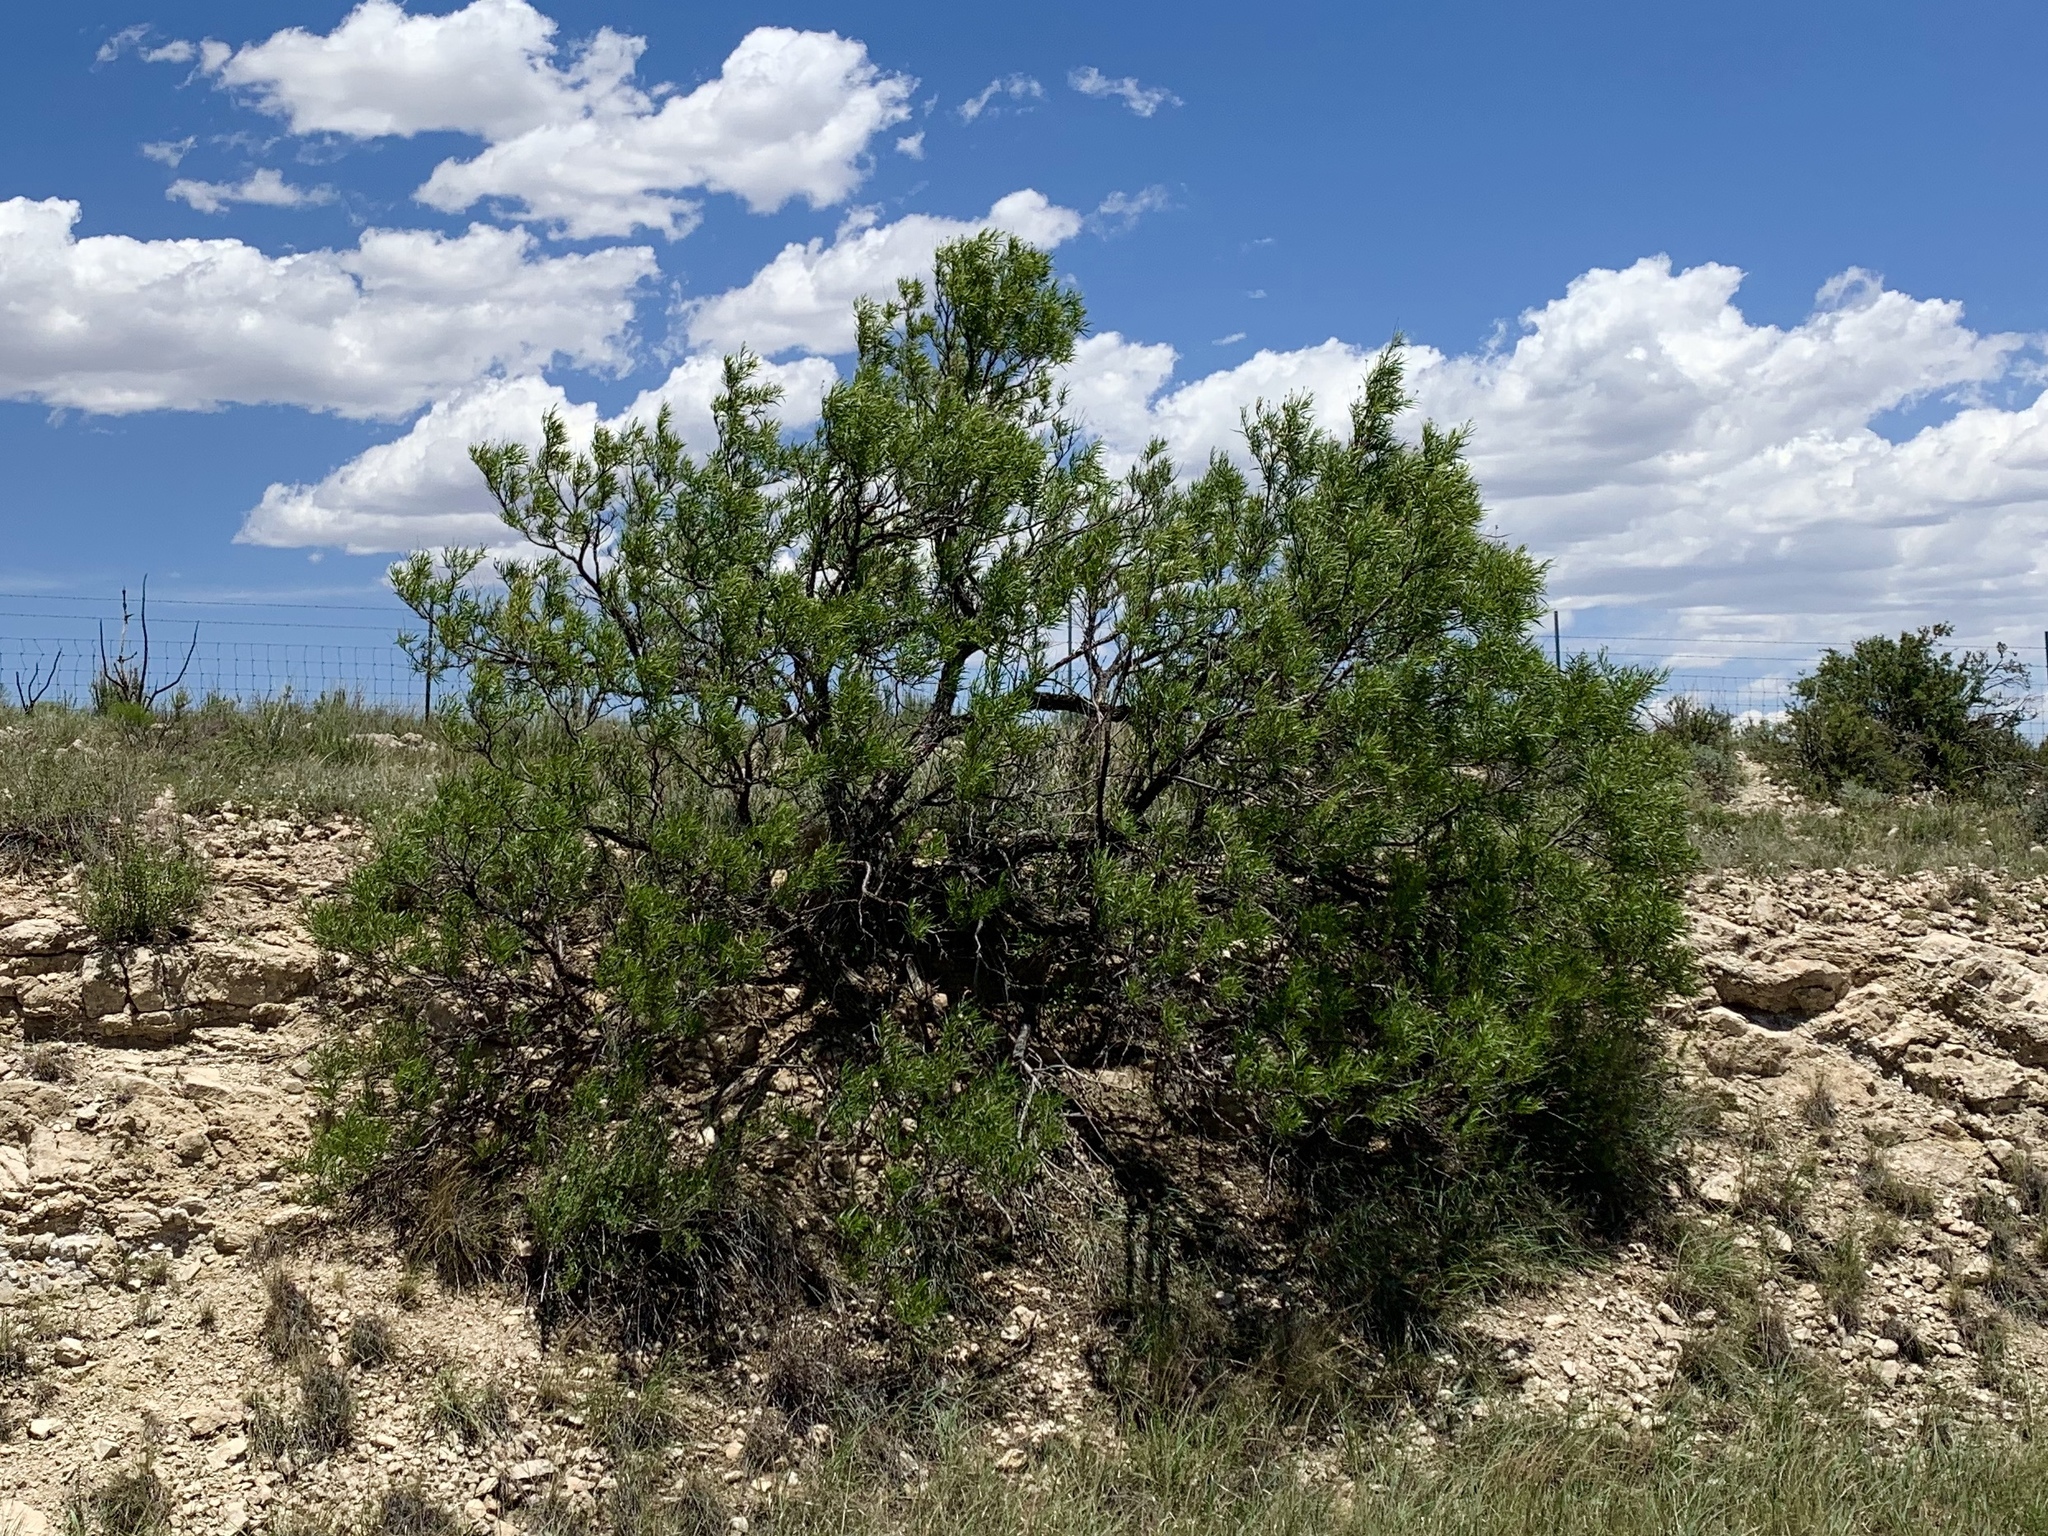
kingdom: Plantae
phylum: Tracheophyta
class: Magnoliopsida
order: Lamiales
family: Bignoniaceae
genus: Chilopsis
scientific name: Chilopsis linearis
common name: Desert-willow
